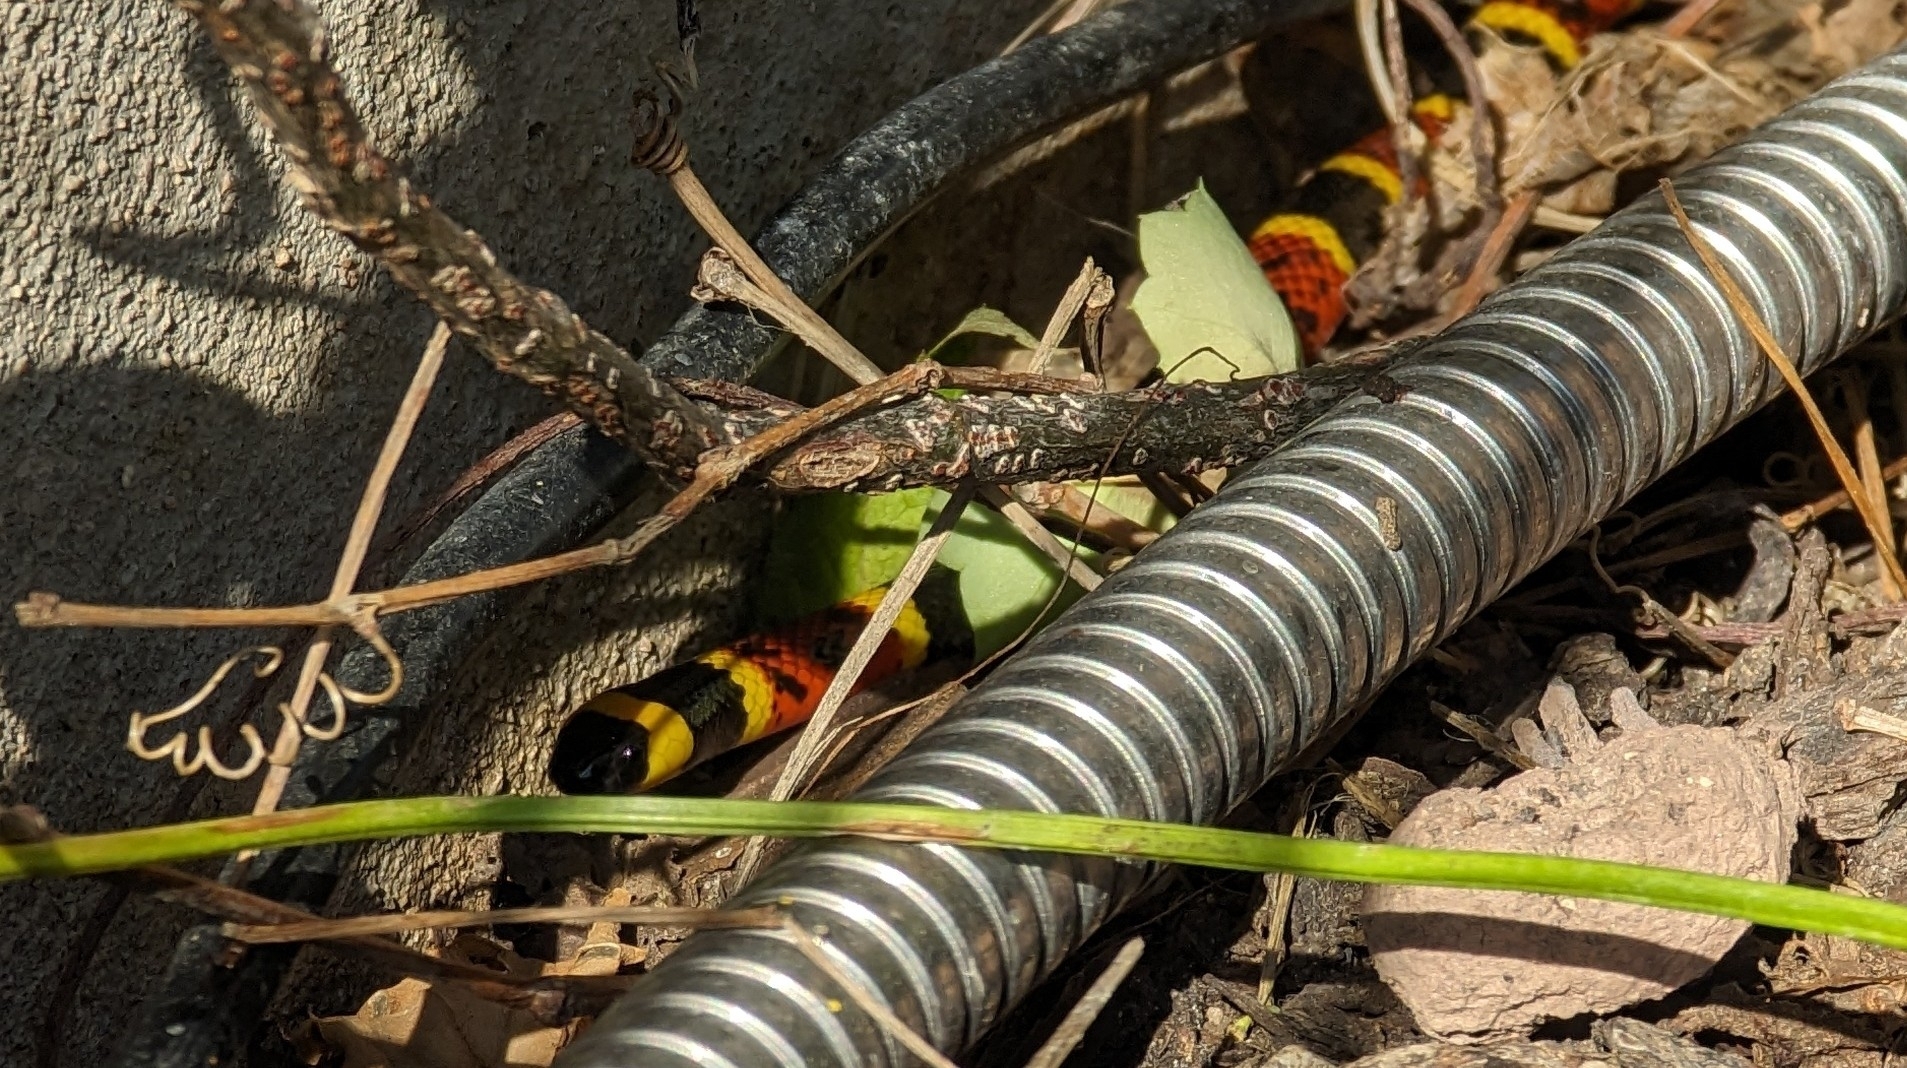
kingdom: Animalia
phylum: Chordata
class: Squamata
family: Elapidae
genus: Micrurus
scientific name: Micrurus tener
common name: Texas coral snake
